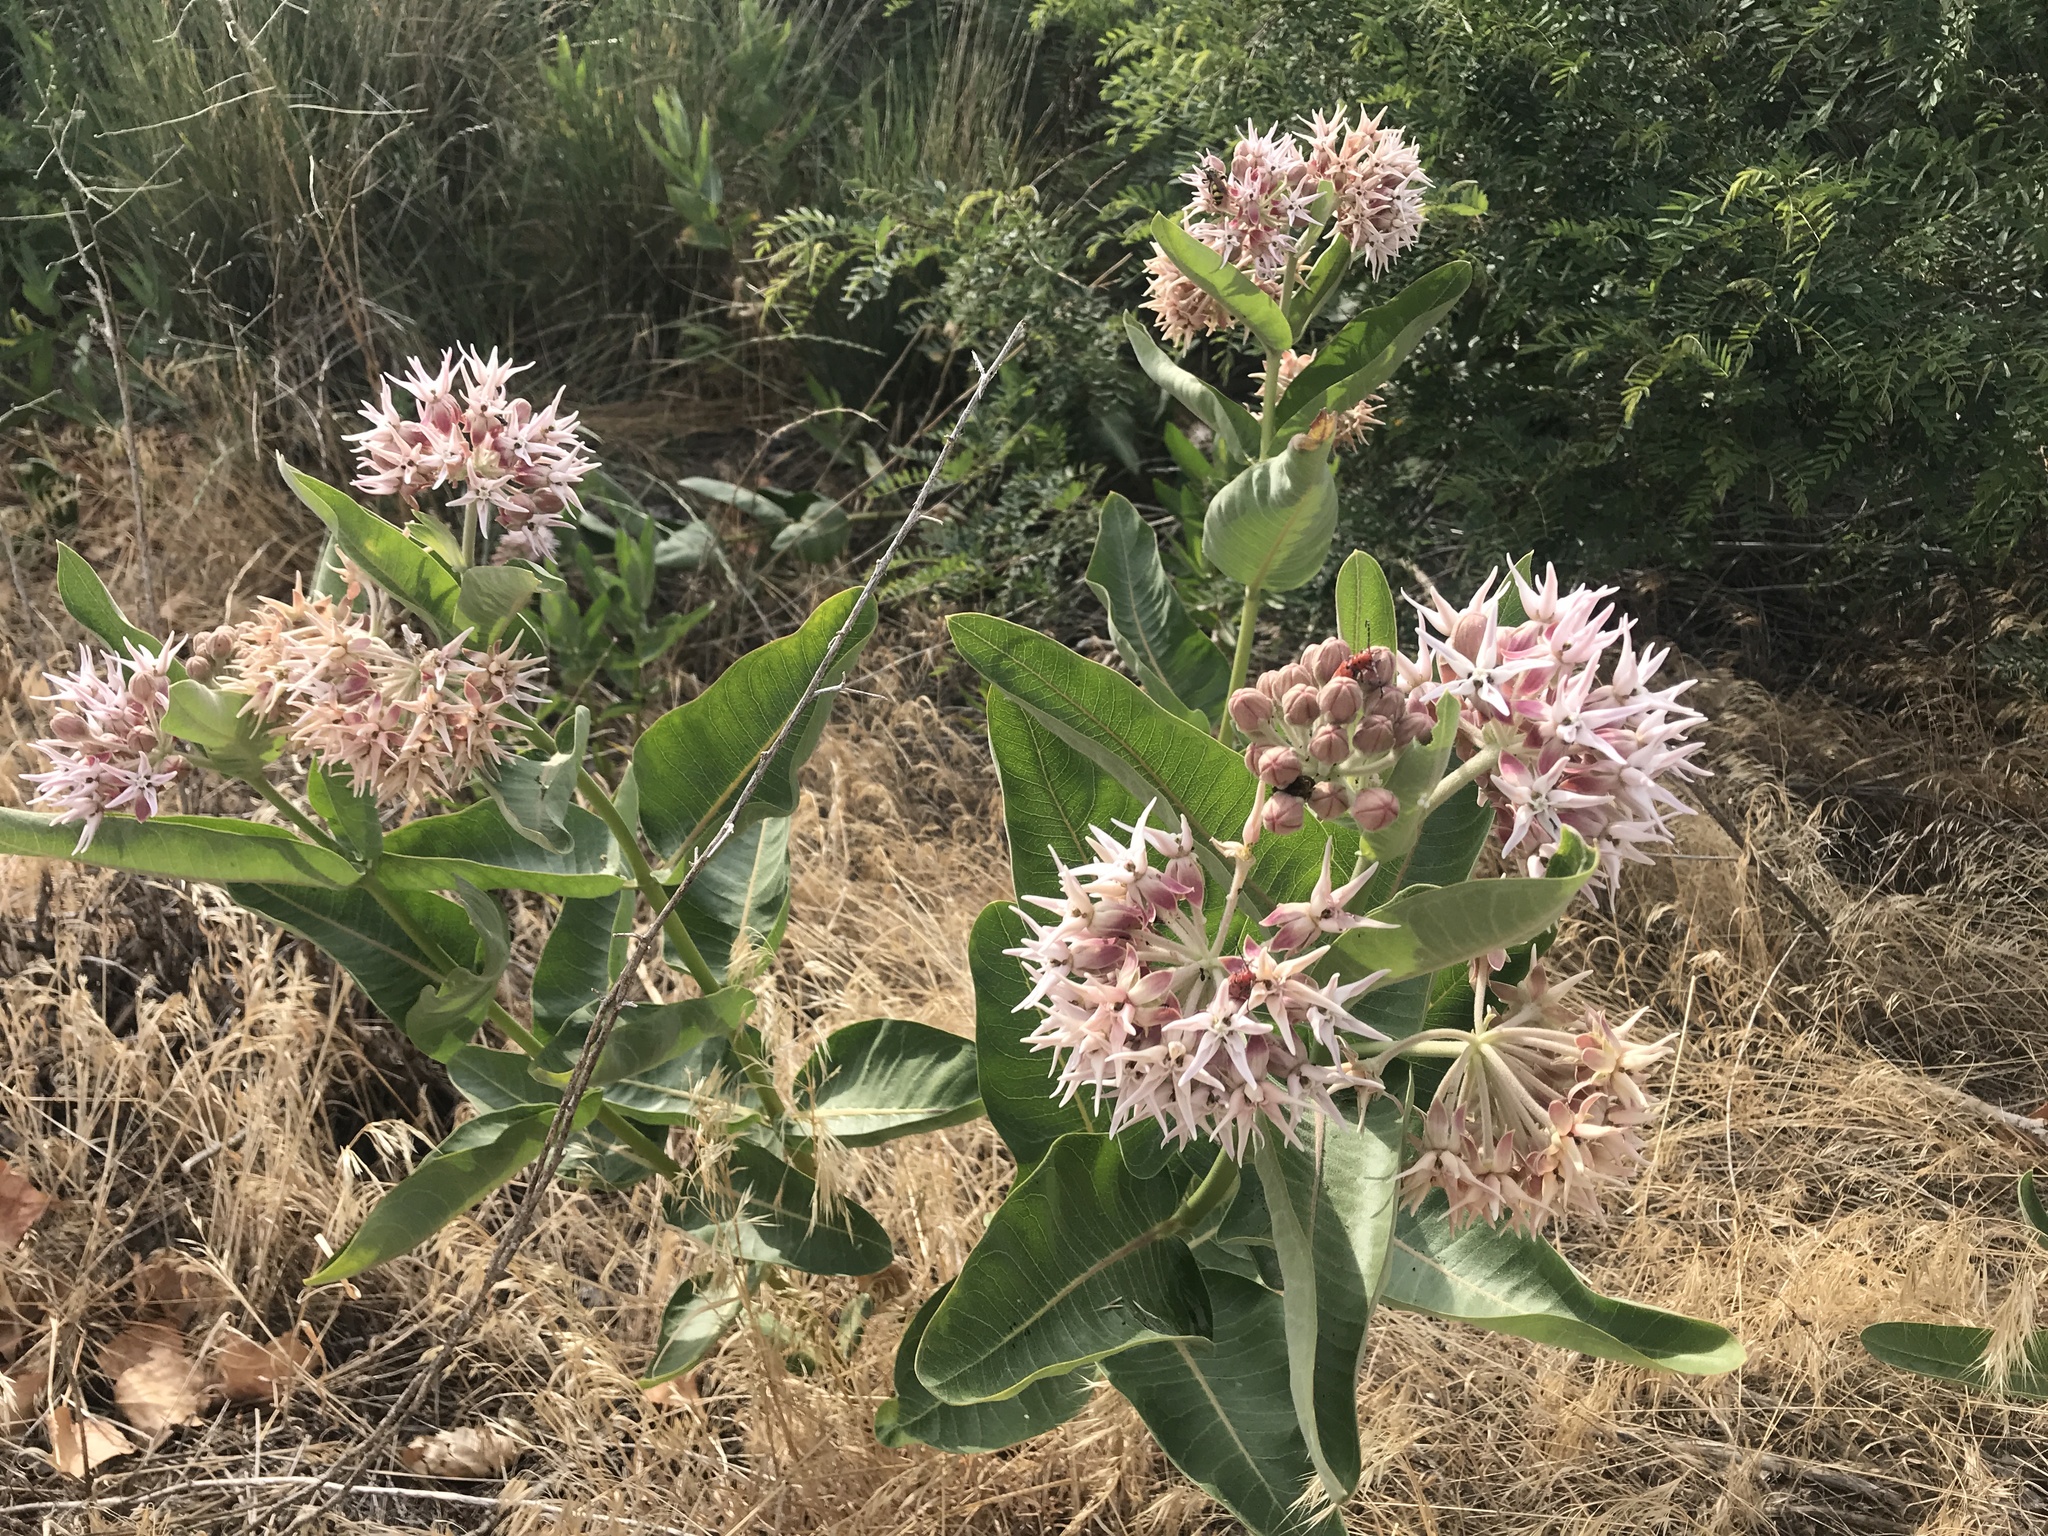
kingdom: Plantae
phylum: Tracheophyta
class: Magnoliopsida
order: Gentianales
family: Apocynaceae
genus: Asclepias
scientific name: Asclepias speciosa
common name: Showy milkweed
